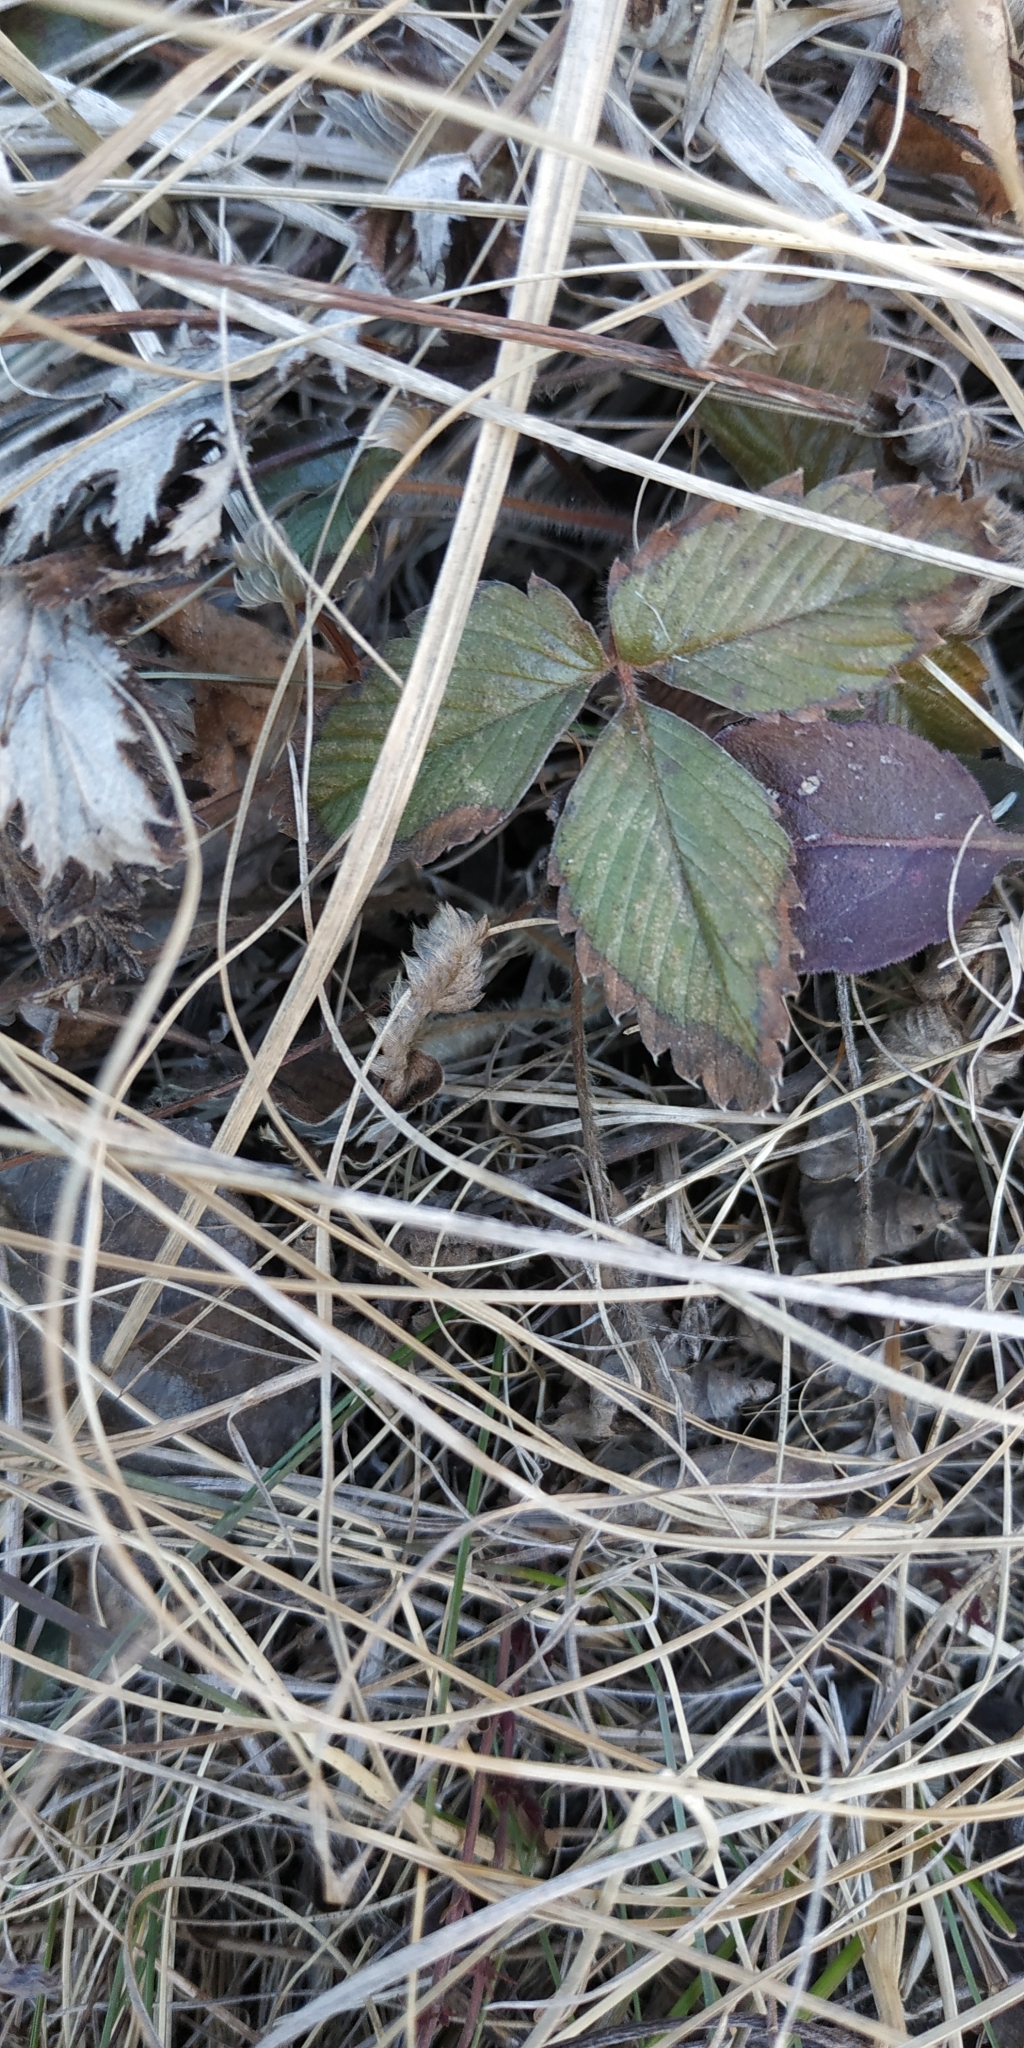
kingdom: Plantae
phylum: Tracheophyta
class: Magnoliopsida
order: Rosales
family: Rosaceae
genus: Fragaria
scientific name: Fragaria viridis
